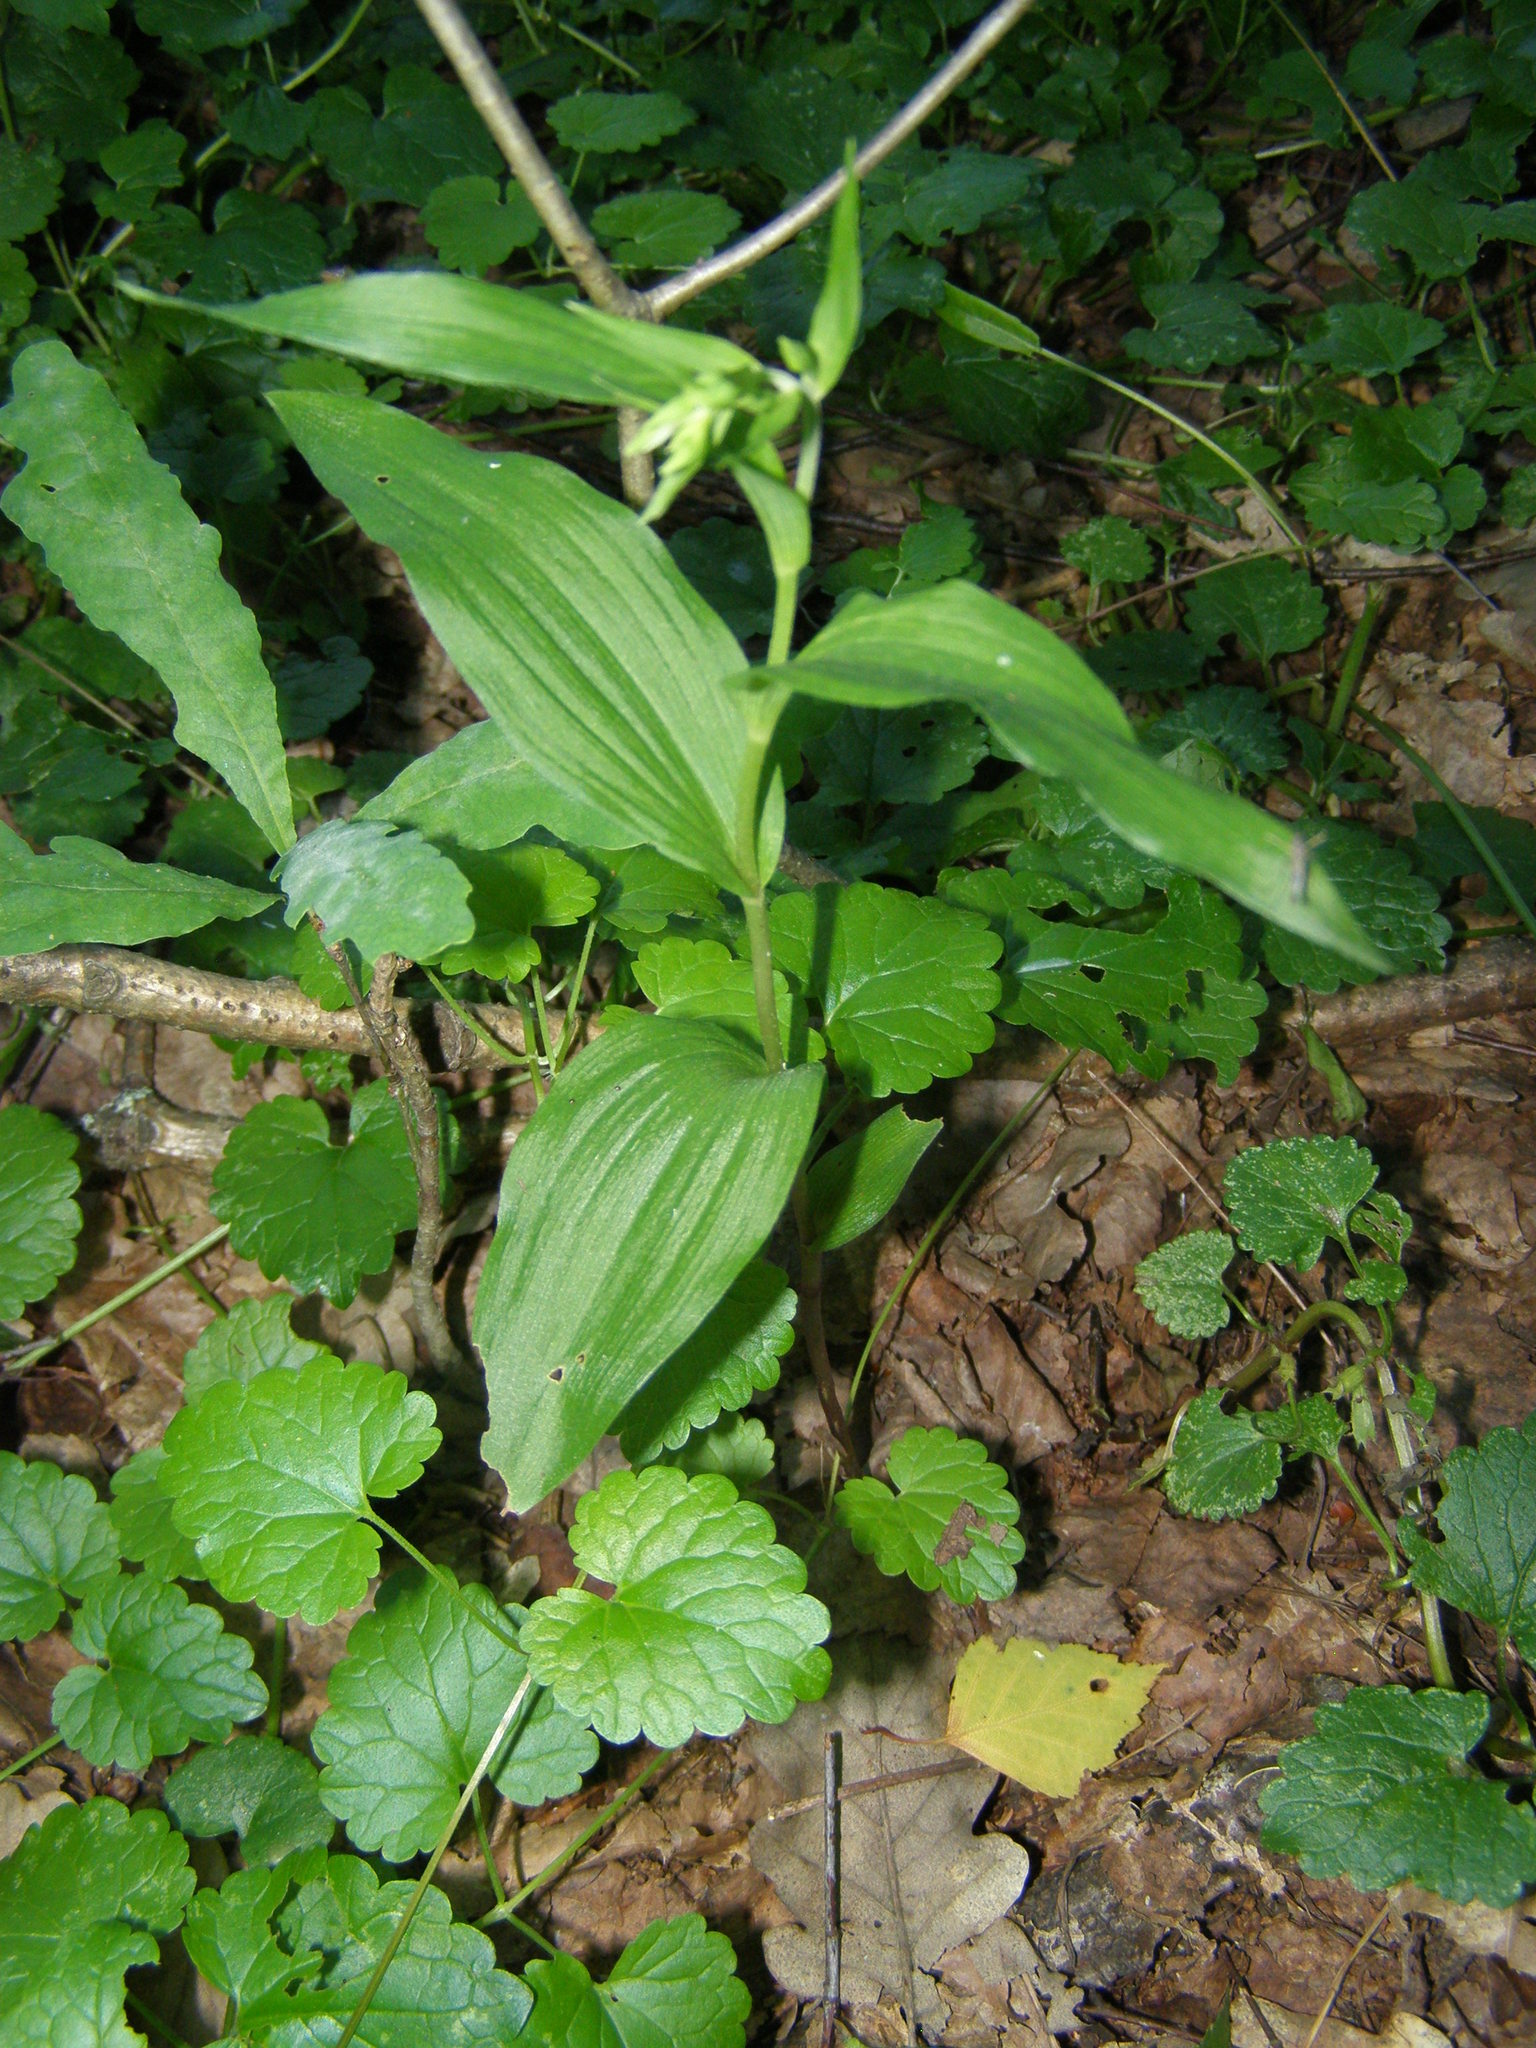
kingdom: Plantae
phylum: Tracheophyta
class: Liliopsida
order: Asparagales
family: Orchidaceae
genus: Epipactis
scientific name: Epipactis helleborine
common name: Broad-leaved helleborine
